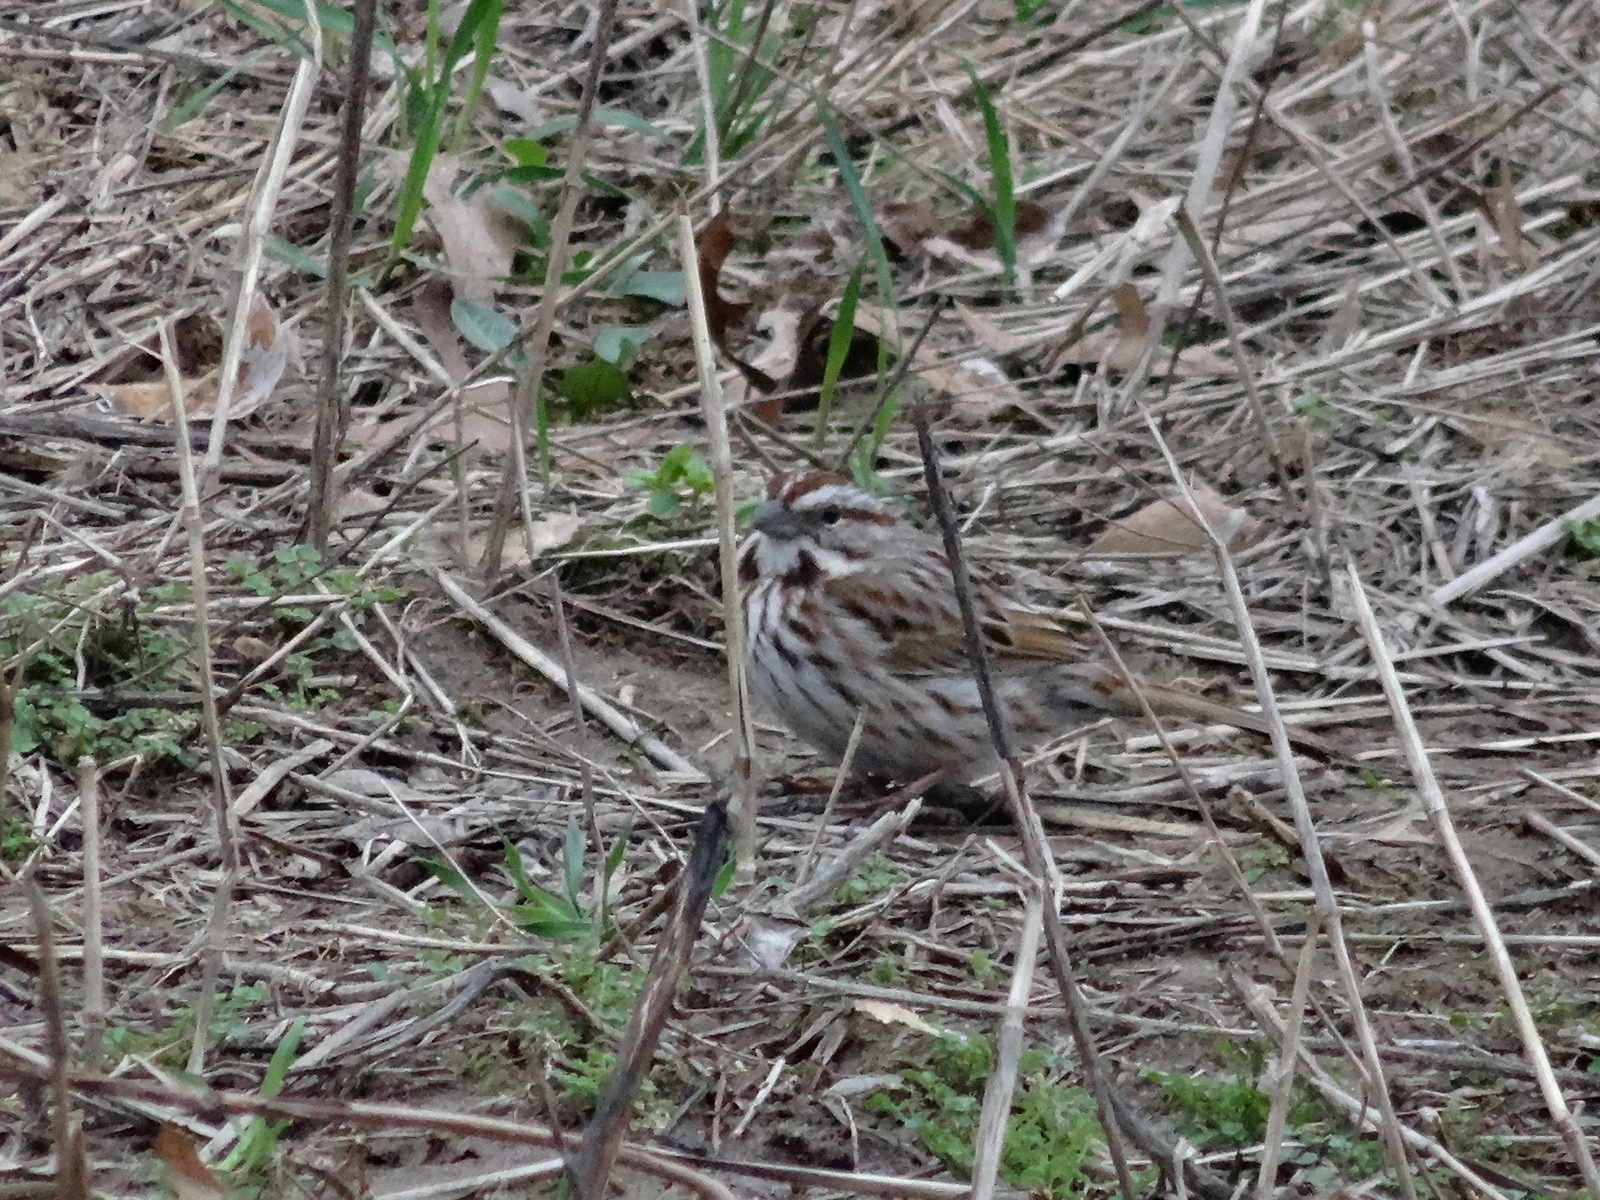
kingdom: Animalia
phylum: Chordata
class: Aves
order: Passeriformes
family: Passerellidae
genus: Melospiza
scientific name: Melospiza melodia
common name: Song sparrow
